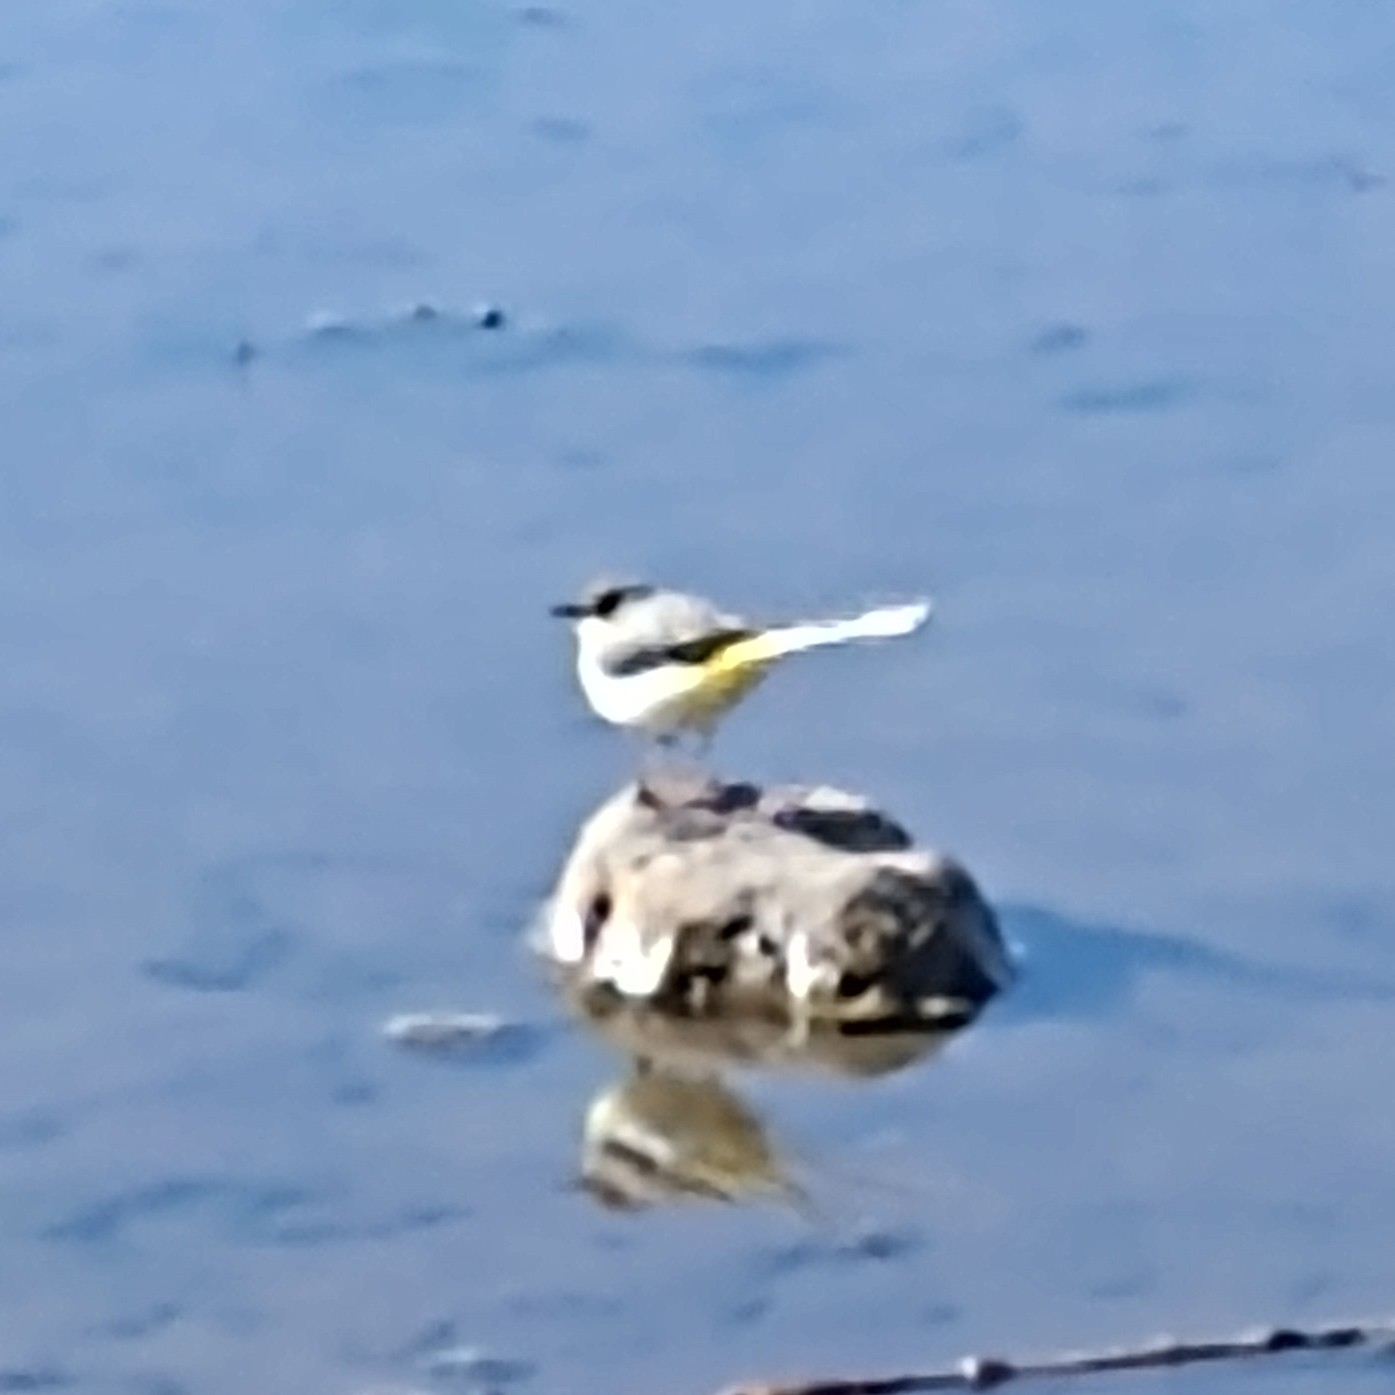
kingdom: Animalia
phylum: Chordata
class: Aves
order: Passeriformes
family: Motacillidae
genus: Motacilla
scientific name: Motacilla cinerea
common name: Grey wagtail
